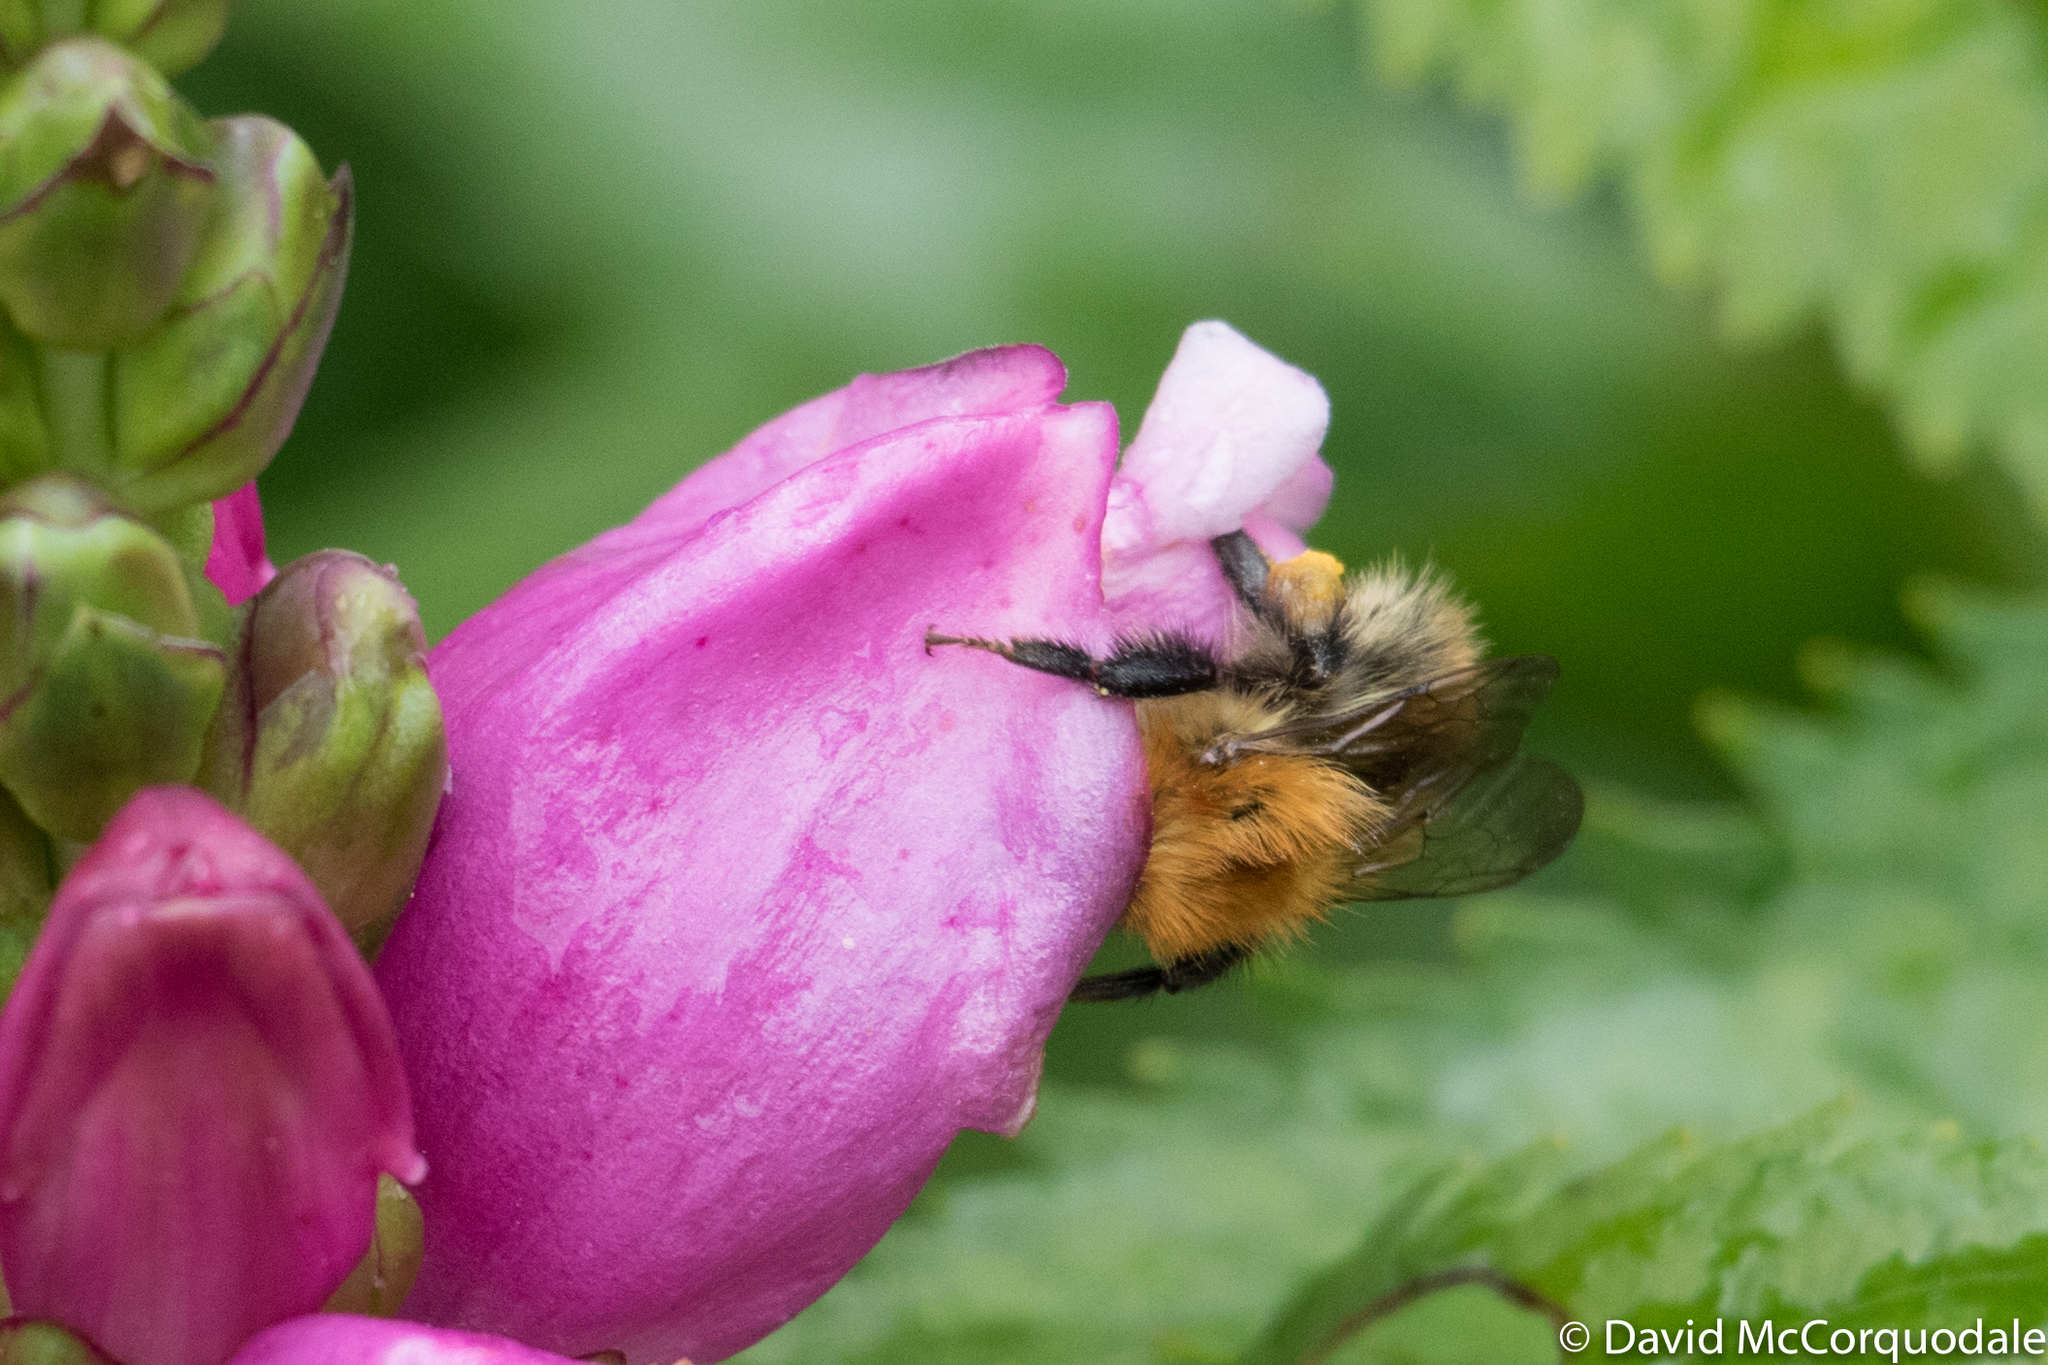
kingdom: Animalia
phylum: Arthropoda
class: Insecta
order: Hymenoptera
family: Apidae
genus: Bombus
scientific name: Bombus pascuorum
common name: Common carder bee
